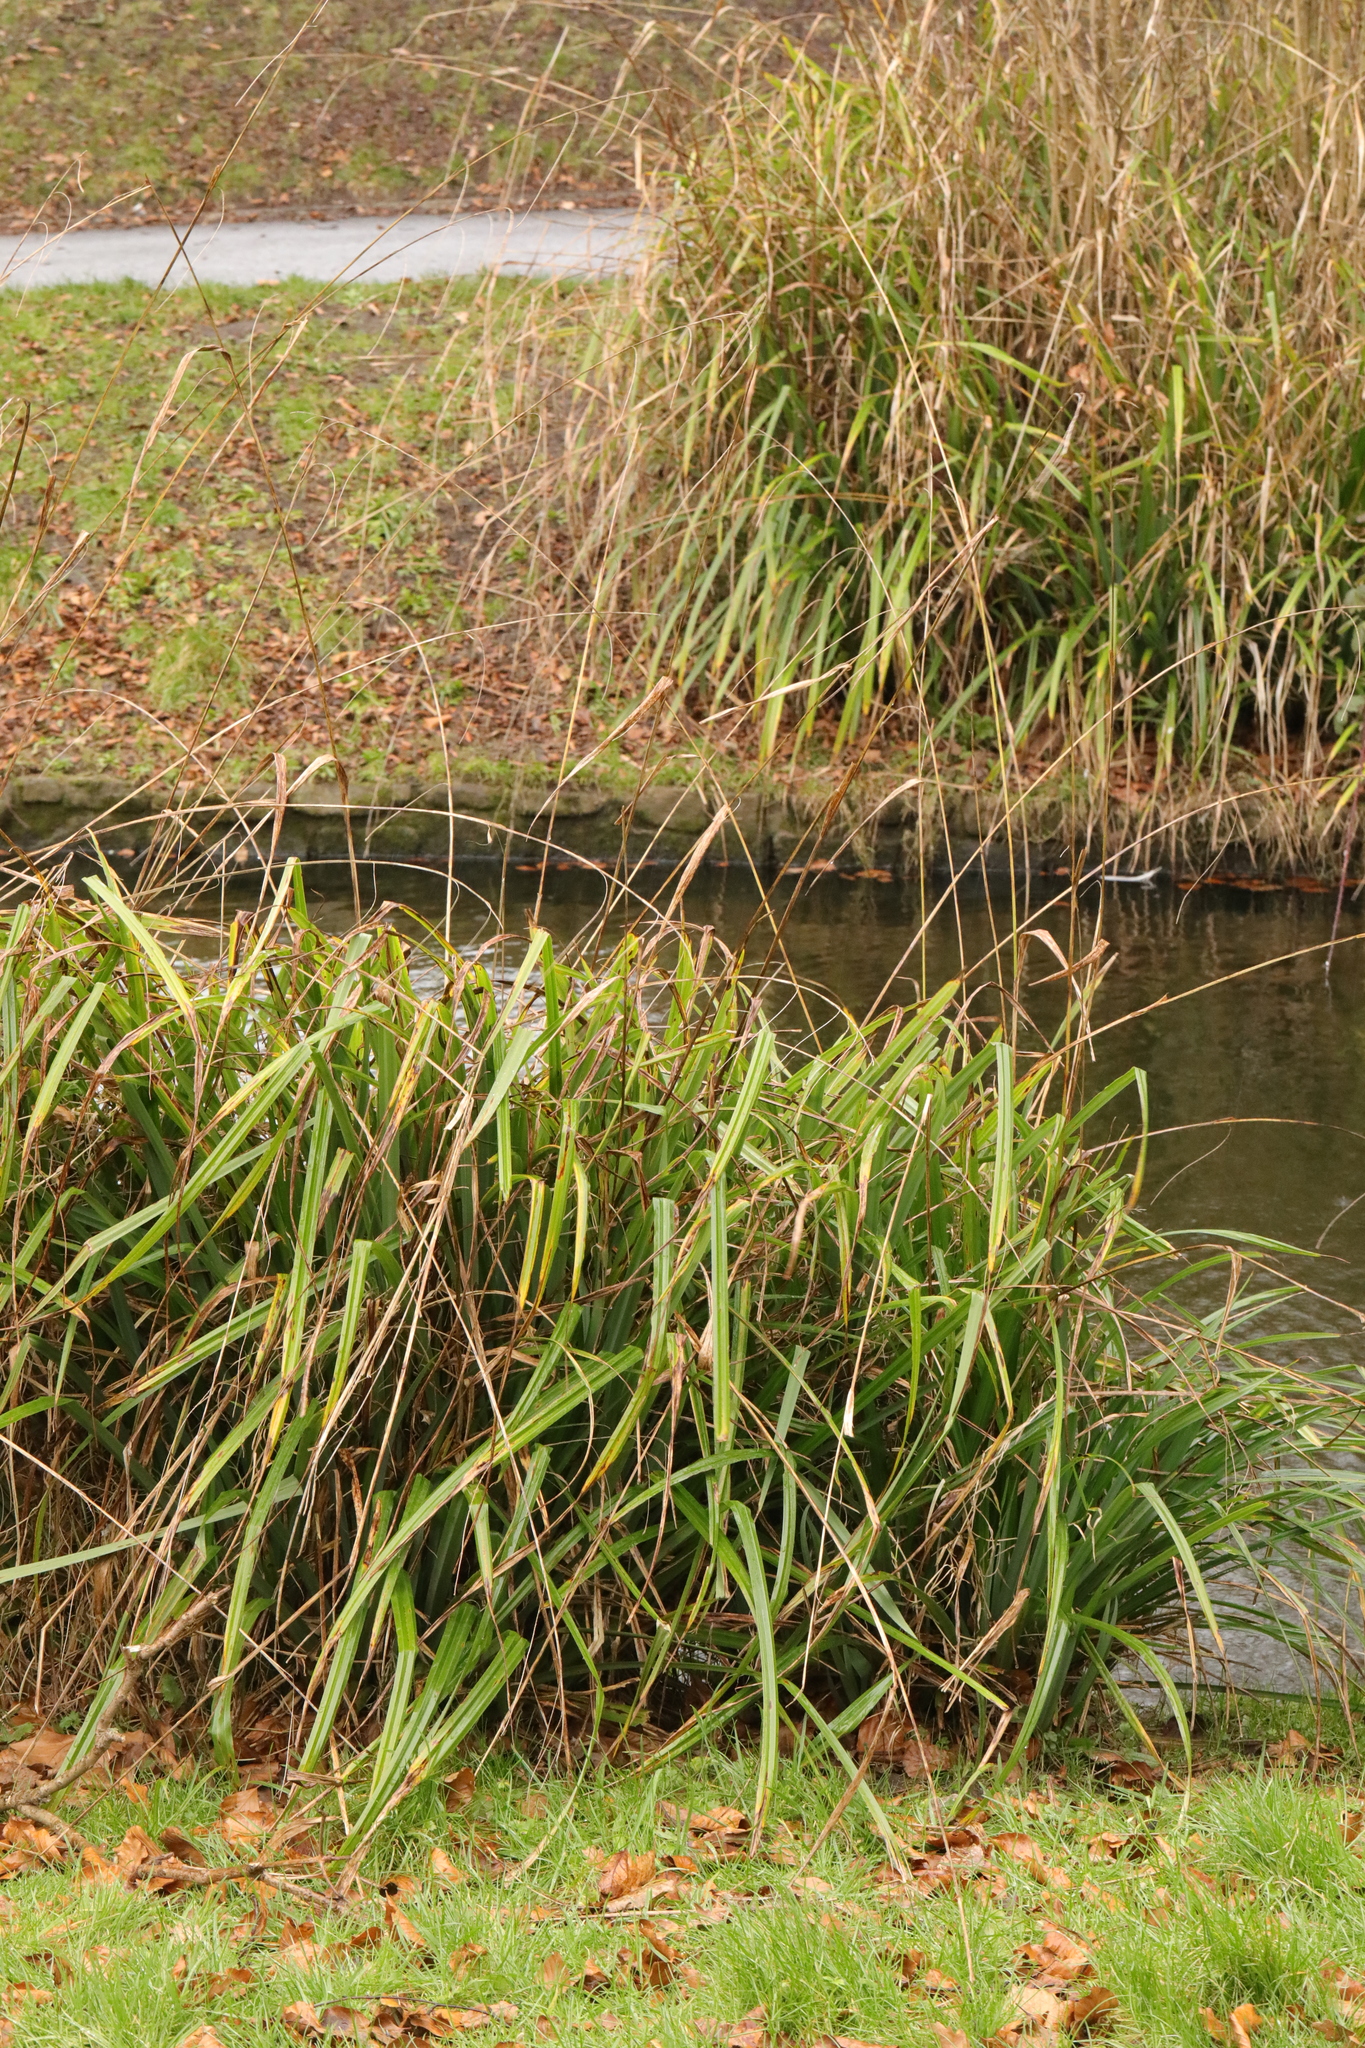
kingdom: Plantae
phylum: Tracheophyta
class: Liliopsida
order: Poales
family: Cyperaceae
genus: Carex
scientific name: Carex pendula
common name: Pendulous sedge
